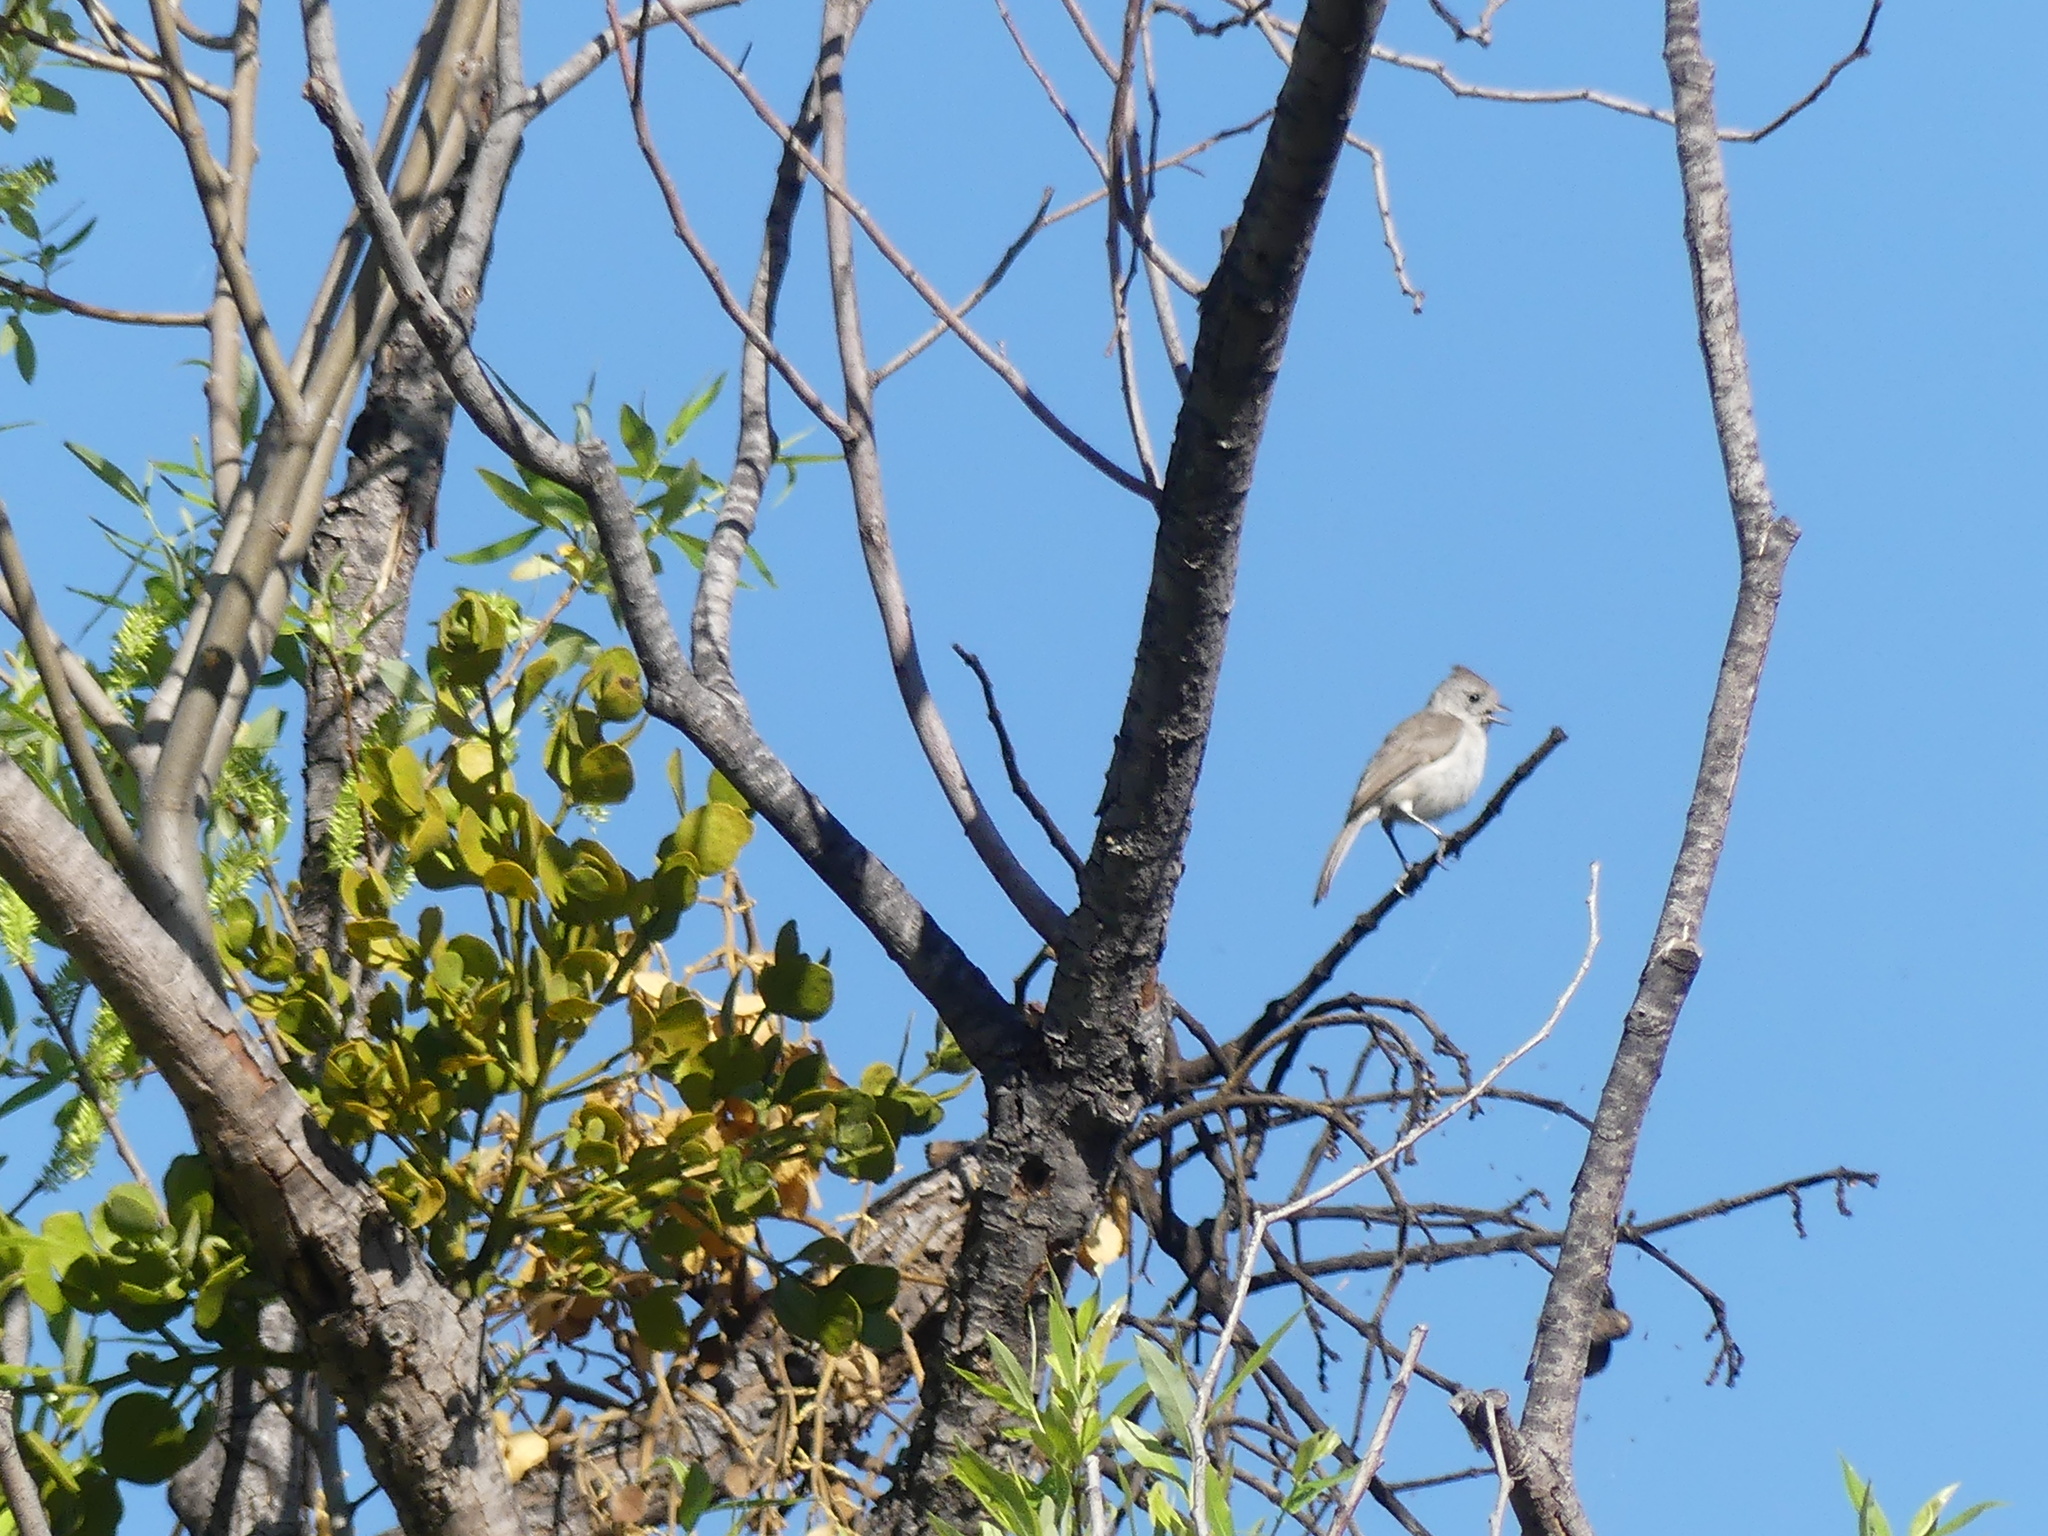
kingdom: Animalia
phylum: Chordata
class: Aves
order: Passeriformes
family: Paridae
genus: Baeolophus
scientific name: Baeolophus inornatus
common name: Oak titmouse
